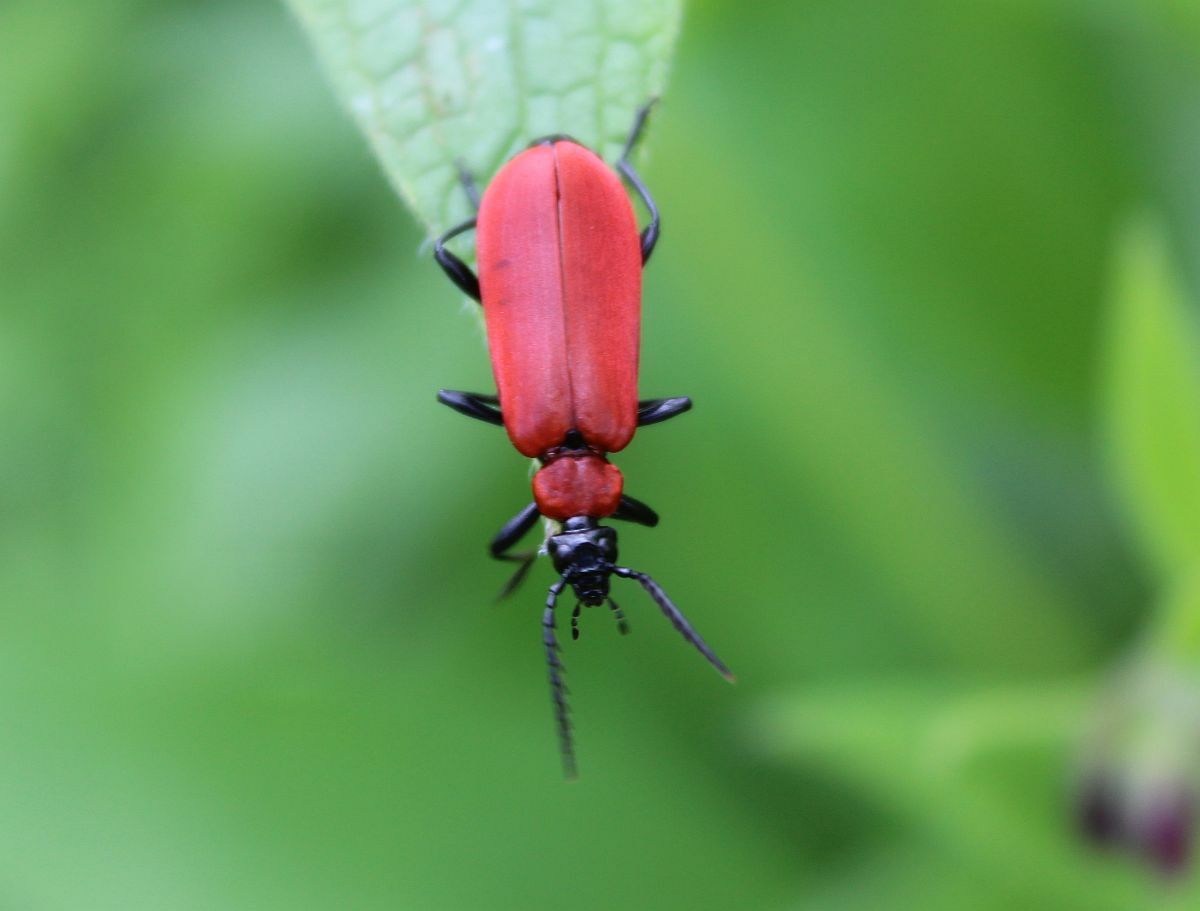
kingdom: Animalia
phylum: Arthropoda
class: Insecta
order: Coleoptera
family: Pyrochroidae
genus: Pyrochroa
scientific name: Pyrochroa coccinea
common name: Black-headed cardinal beetle
